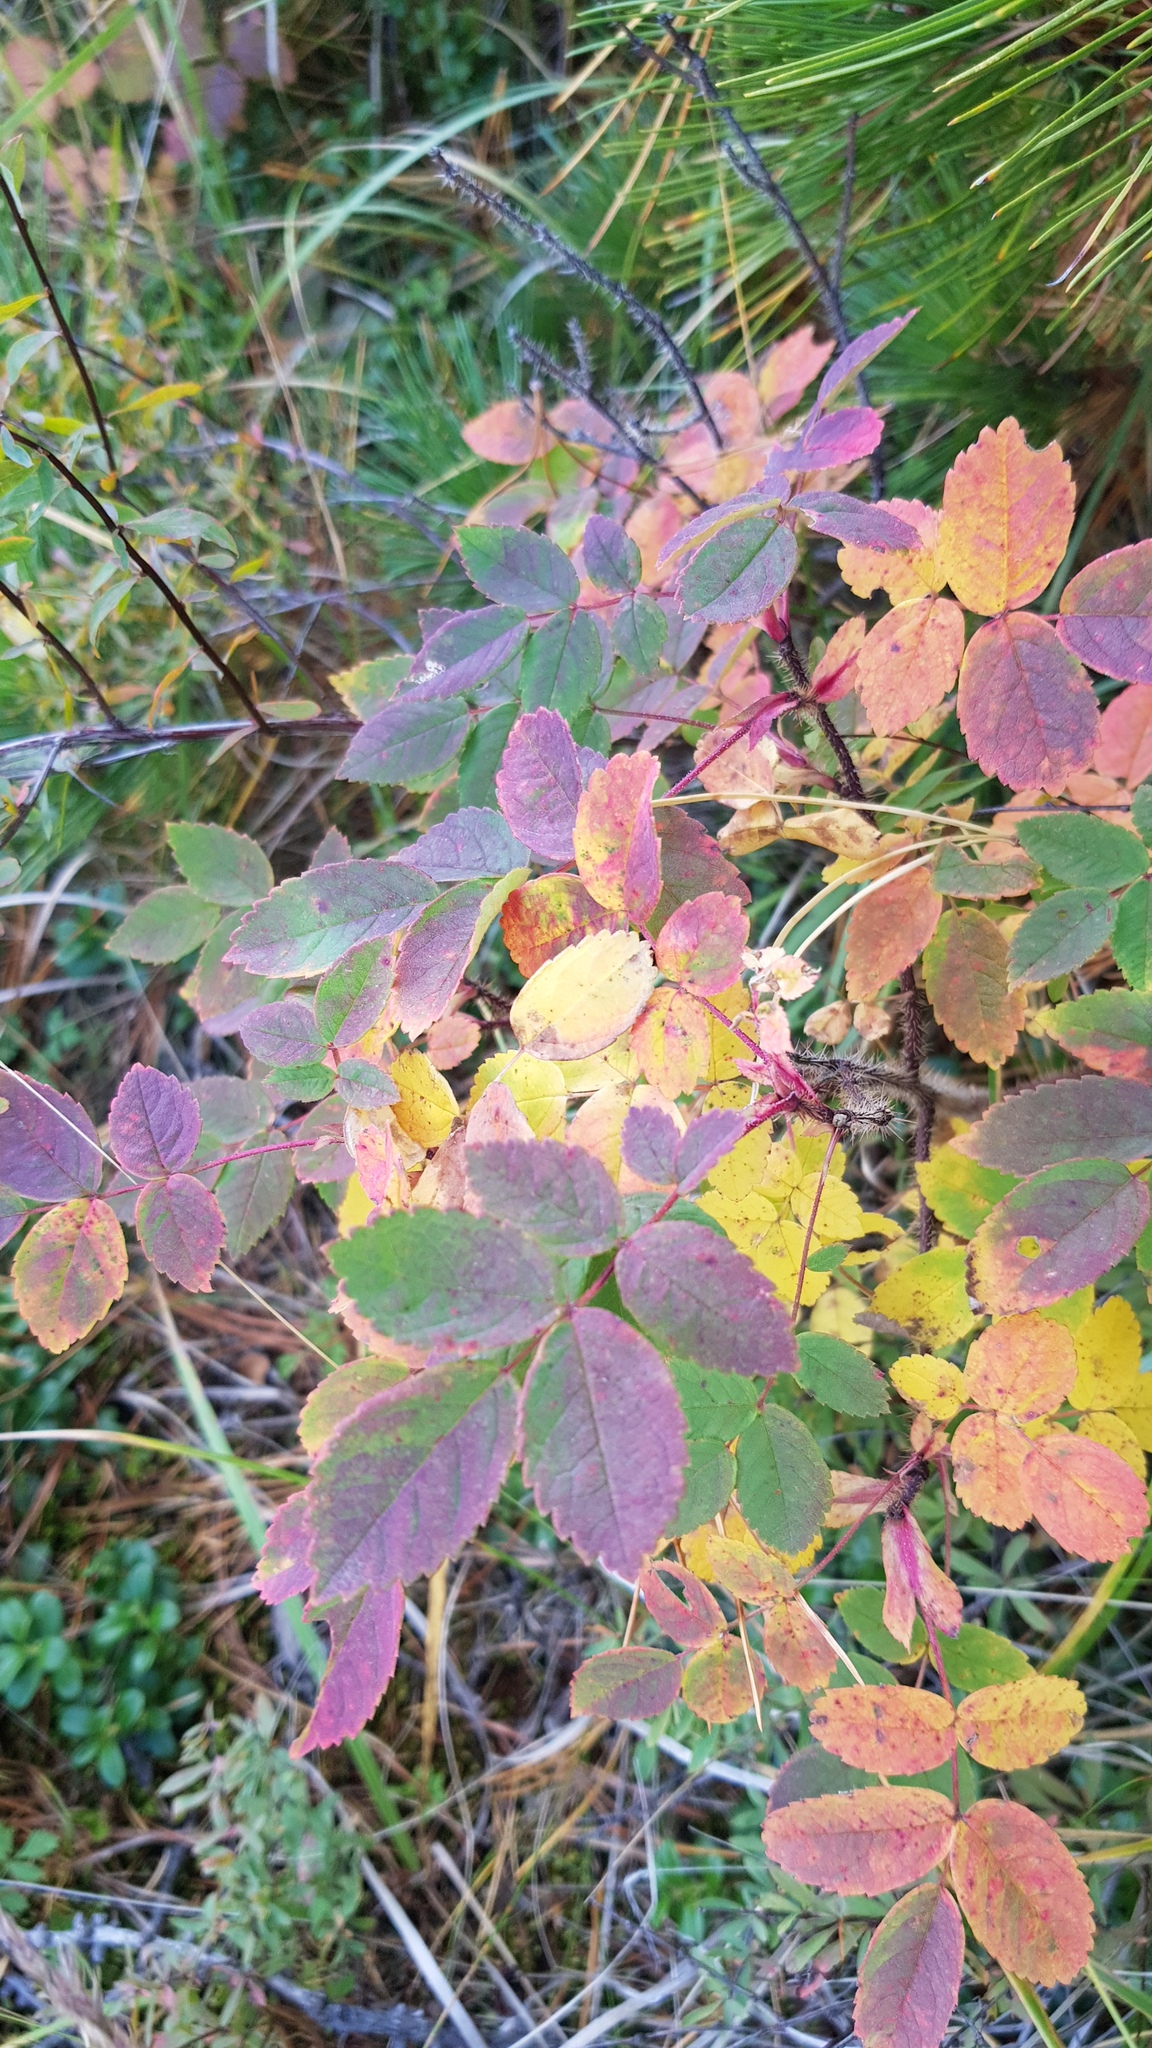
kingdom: Plantae
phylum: Tracheophyta
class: Magnoliopsida
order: Rosales
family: Rosaceae
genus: Rosa
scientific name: Rosa acicularis
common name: Prickly rose
